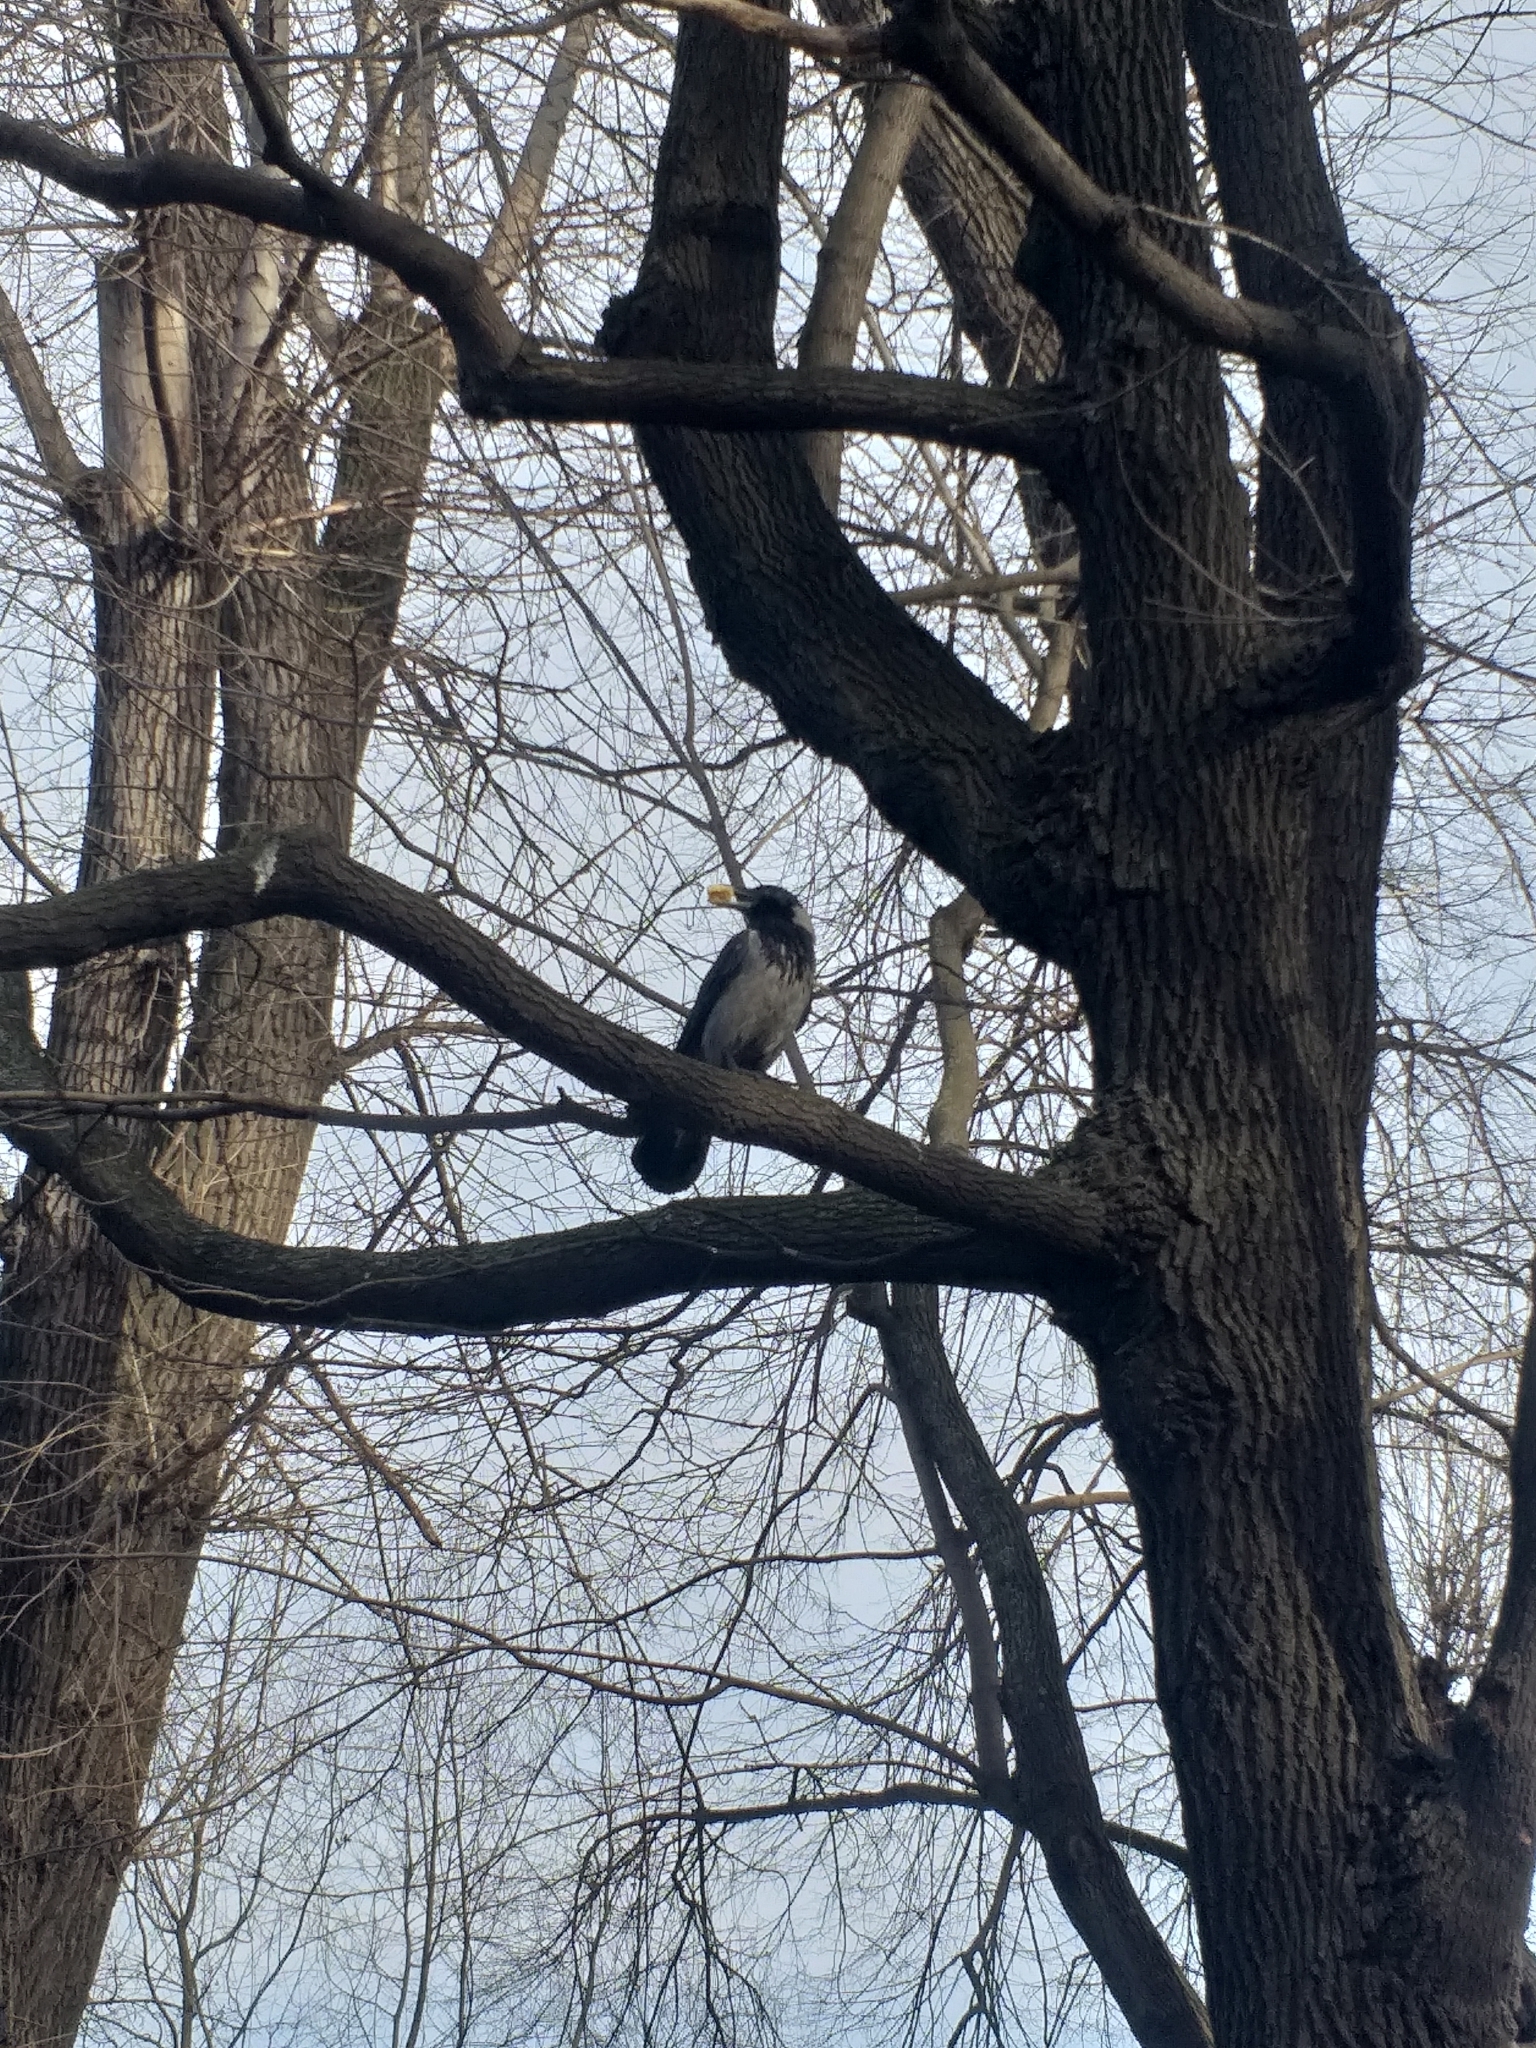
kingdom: Animalia
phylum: Chordata
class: Aves
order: Passeriformes
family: Corvidae
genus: Corvus
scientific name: Corvus cornix
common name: Hooded crow
